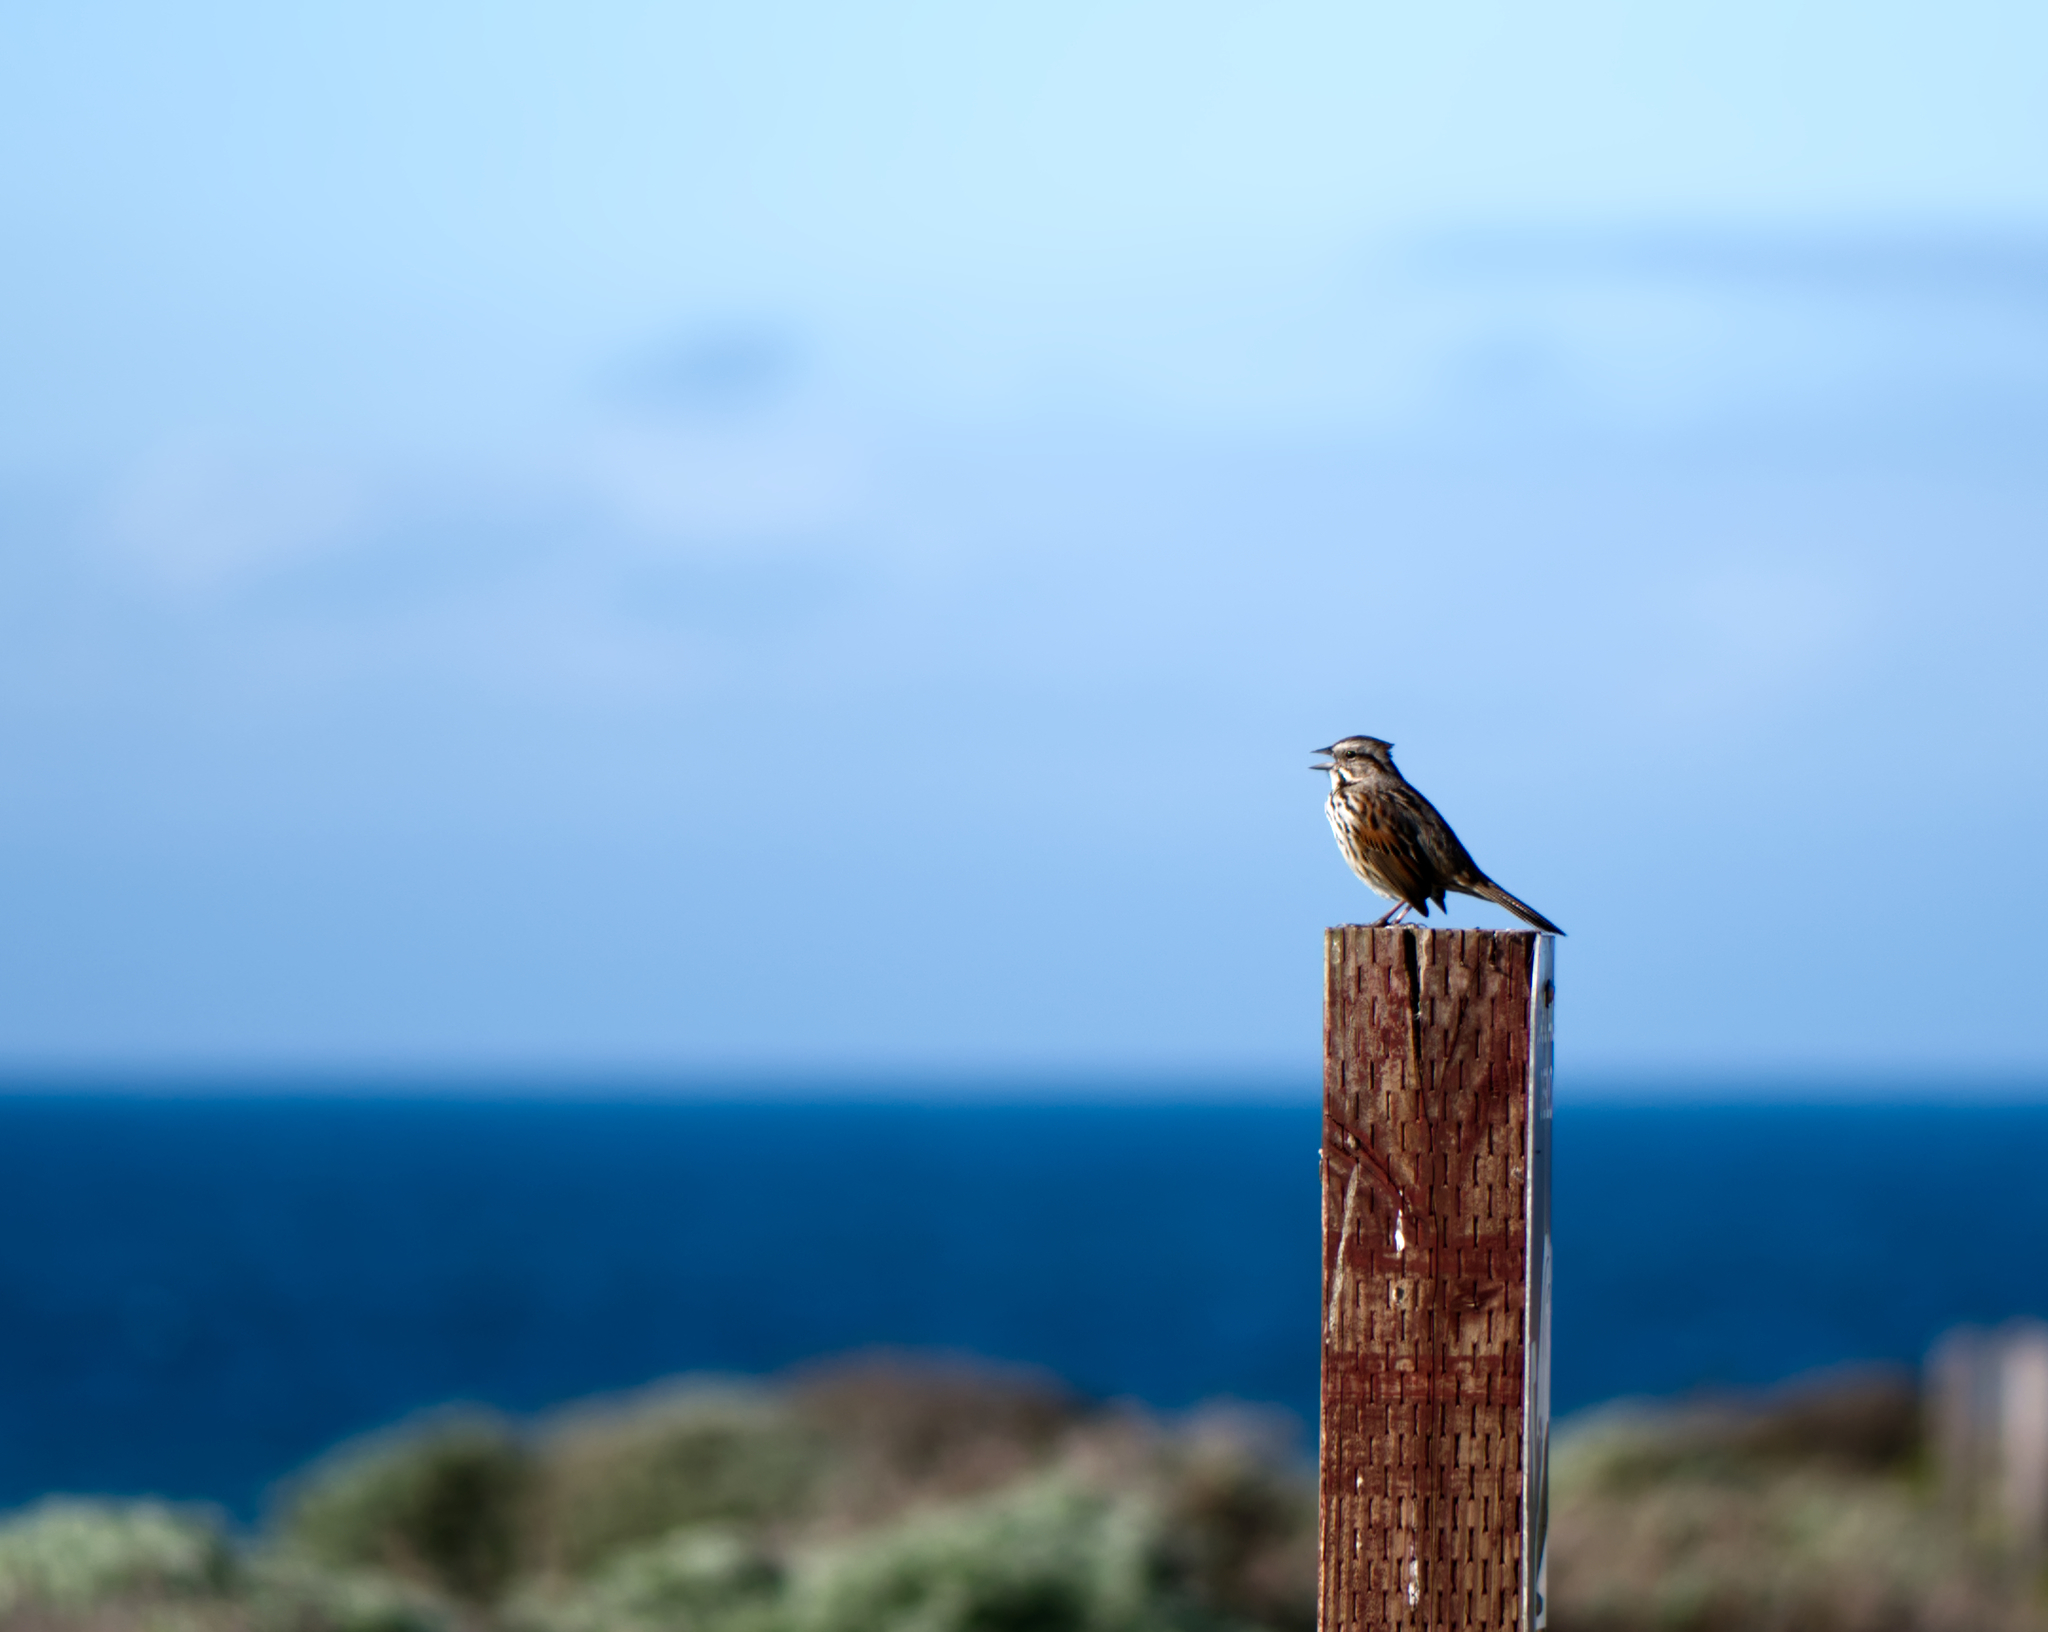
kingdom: Animalia
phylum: Chordata
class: Aves
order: Passeriformes
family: Passerellidae
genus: Melospiza
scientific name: Melospiza melodia
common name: Song sparrow
